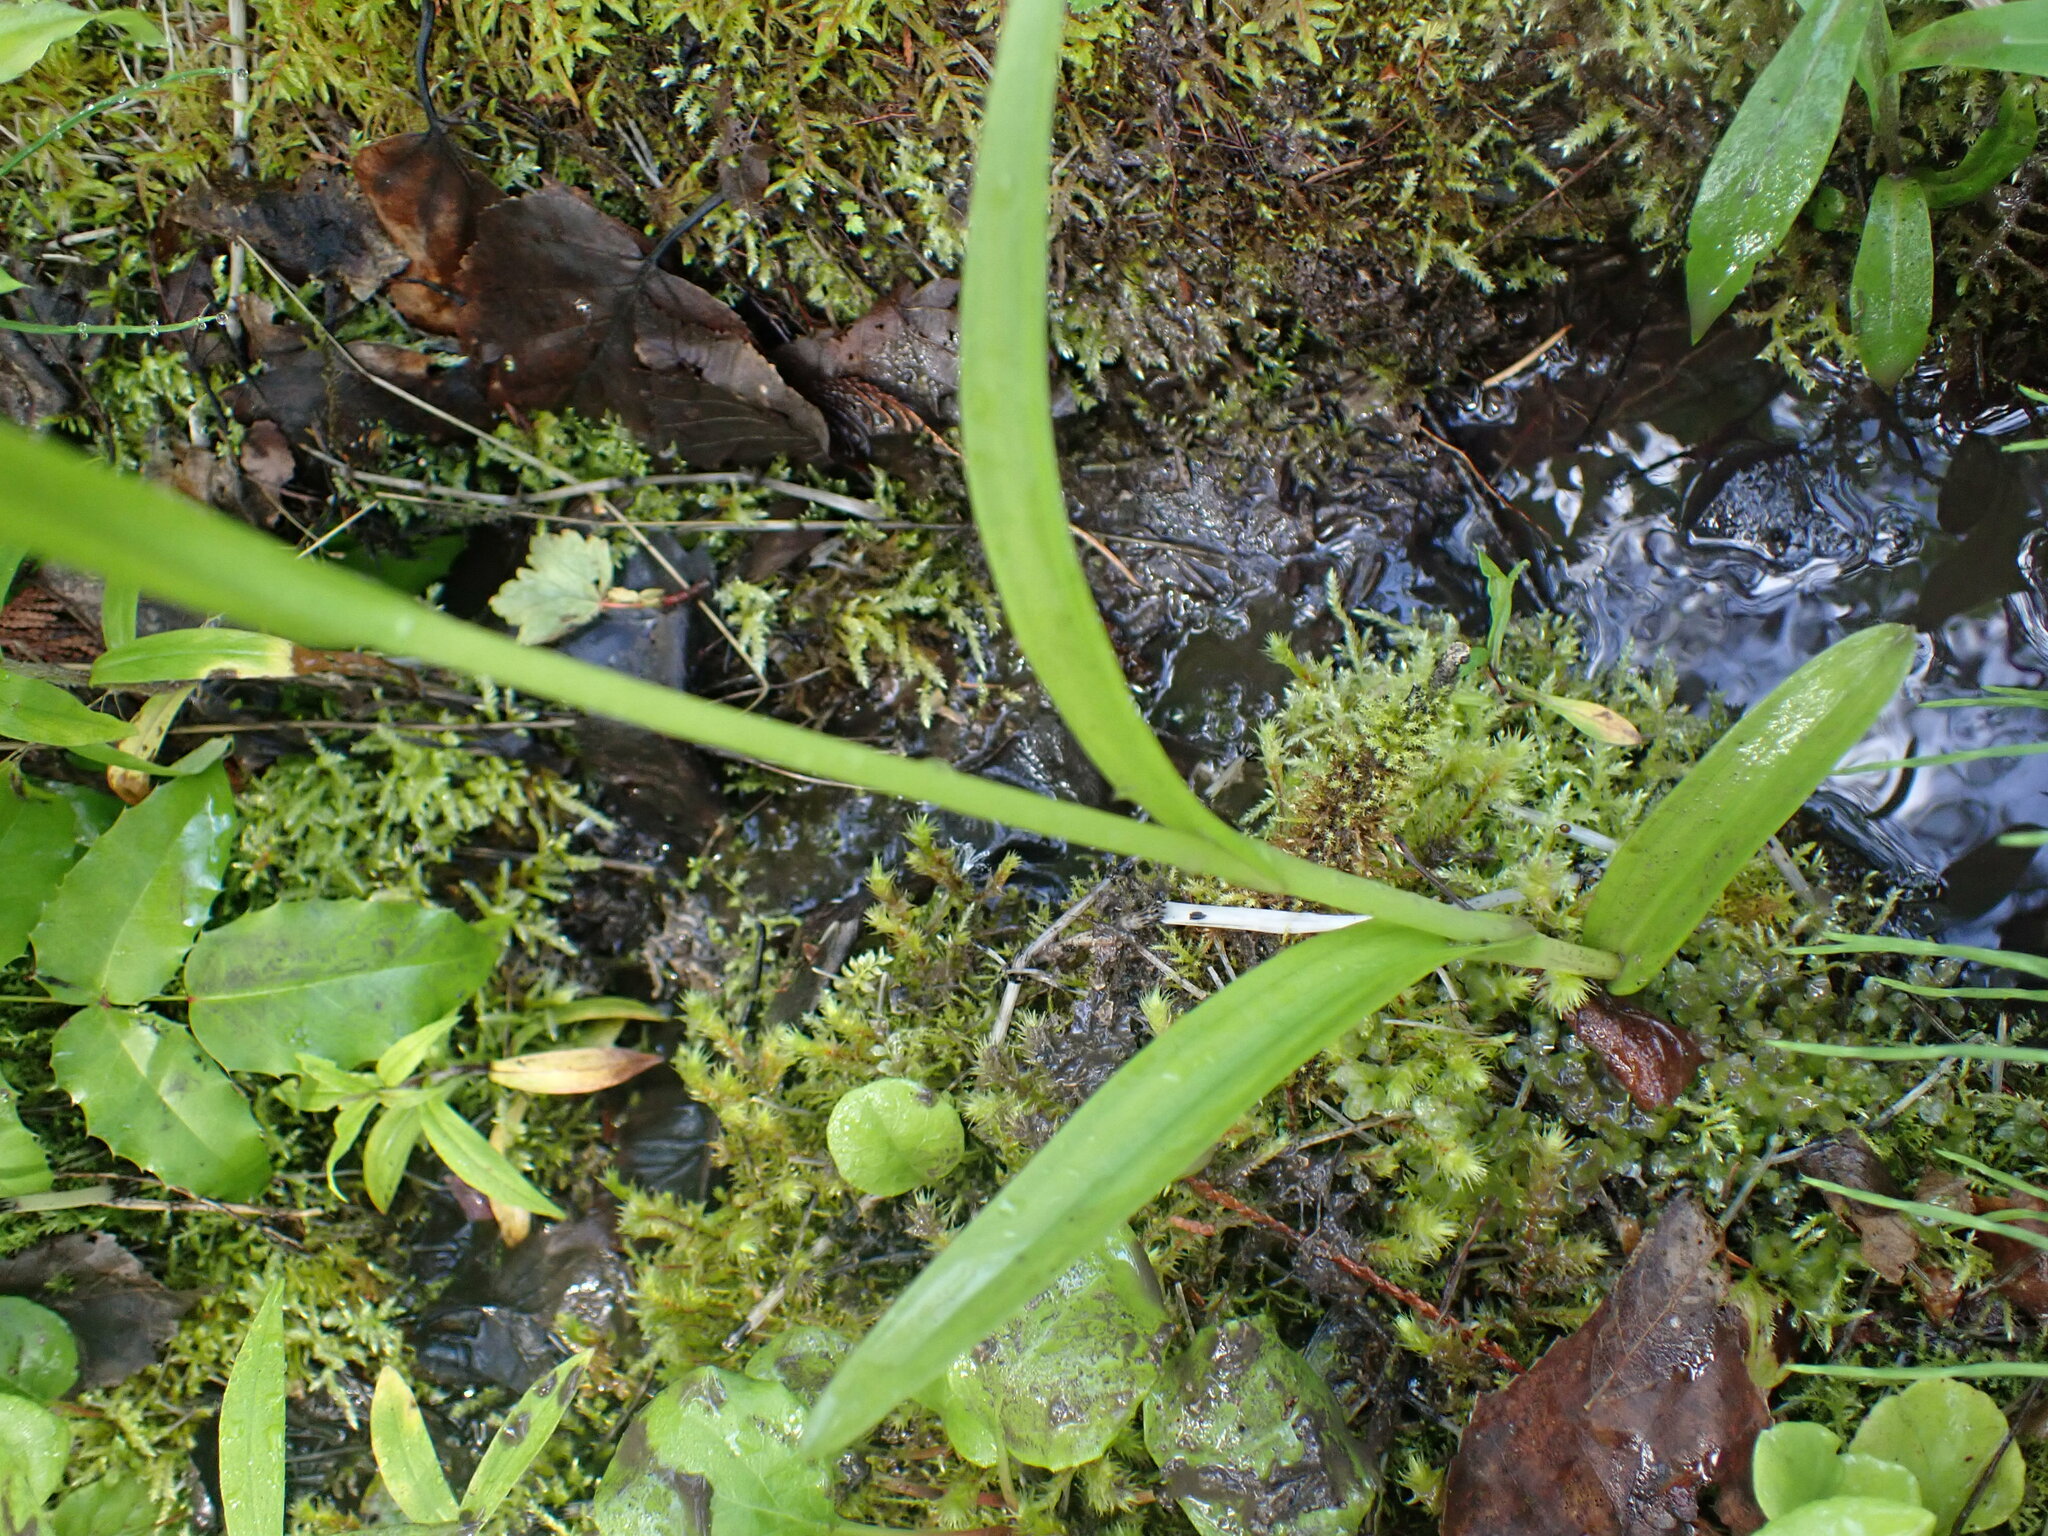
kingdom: Plantae
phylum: Tracheophyta
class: Liliopsida
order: Asparagales
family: Orchidaceae
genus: Platanthera
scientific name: Platanthera huronensis
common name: Fragrant green orchid
